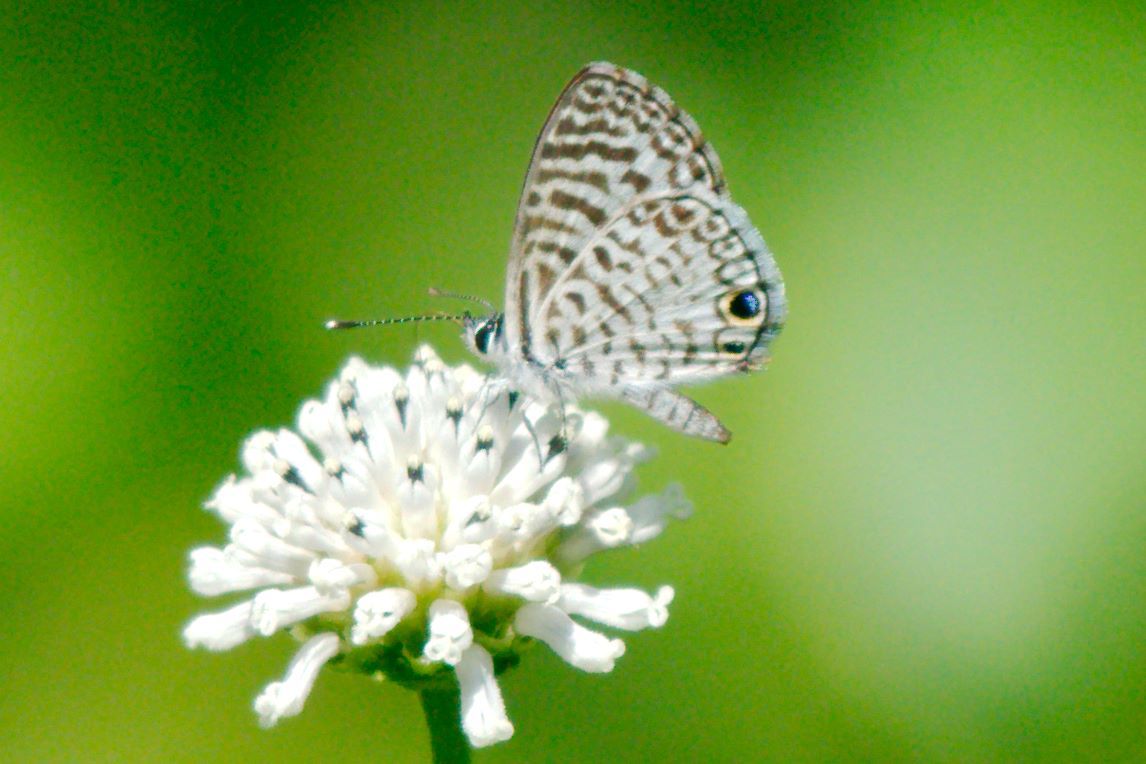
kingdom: Animalia
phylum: Arthropoda
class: Insecta
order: Lepidoptera
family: Lycaenidae
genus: Leptotes
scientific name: Leptotes cassius
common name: Cassius blue
